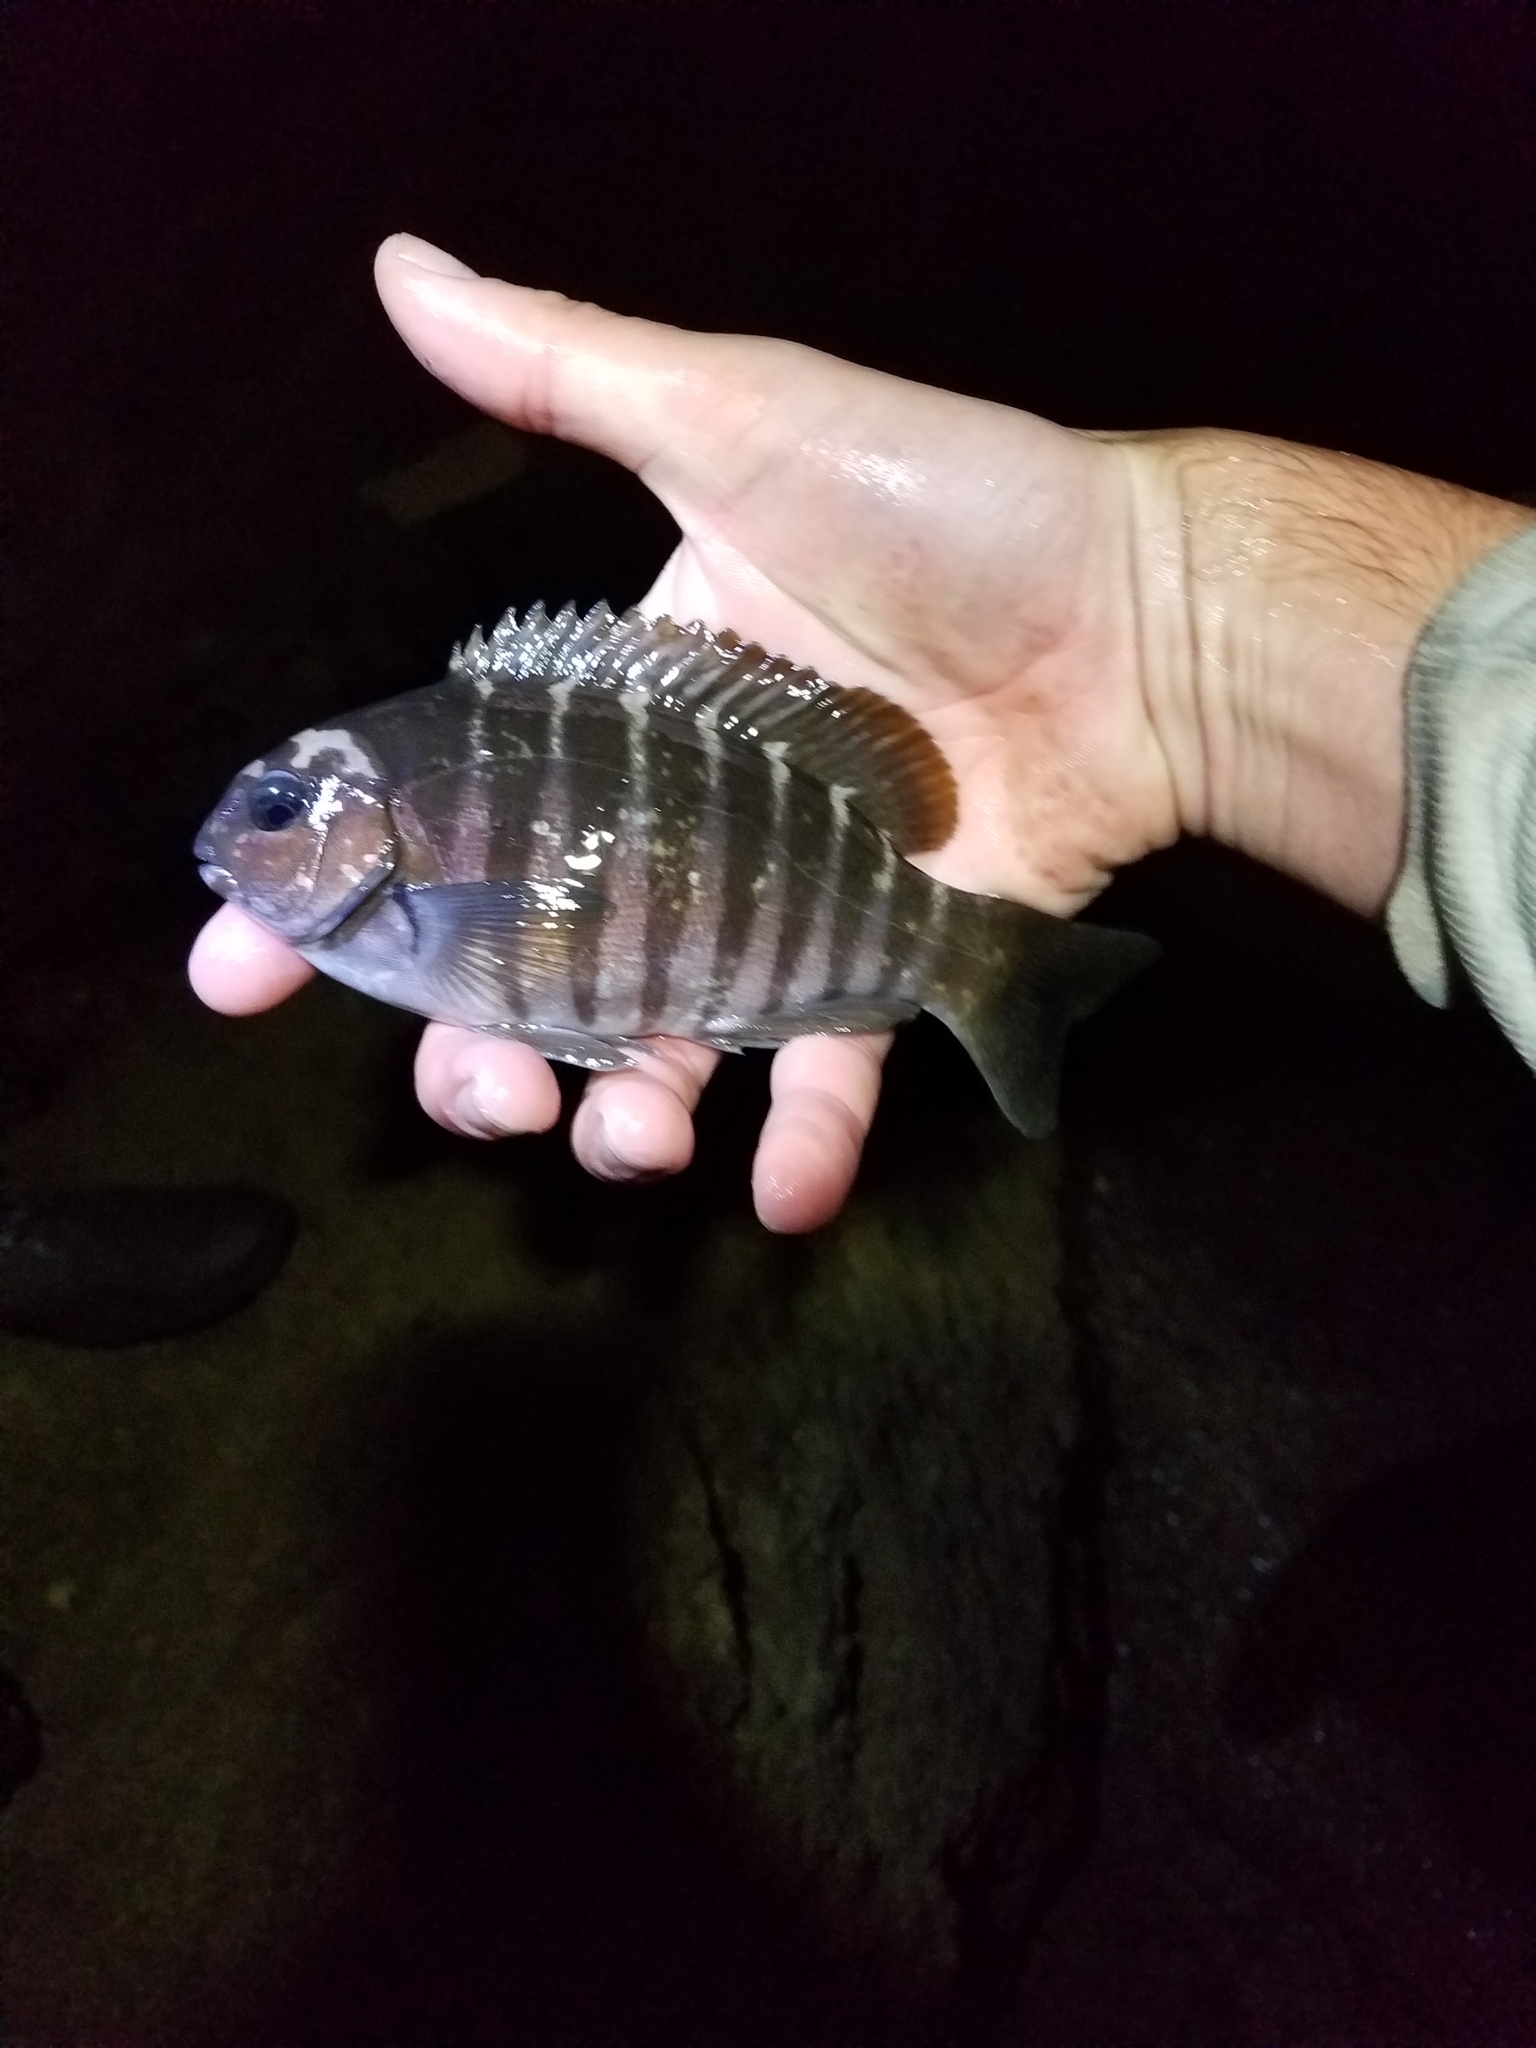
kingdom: Animalia
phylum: Chordata
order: Perciformes
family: Kyphosidae
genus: Girella
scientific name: Girella zebra
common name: Stripey bream
